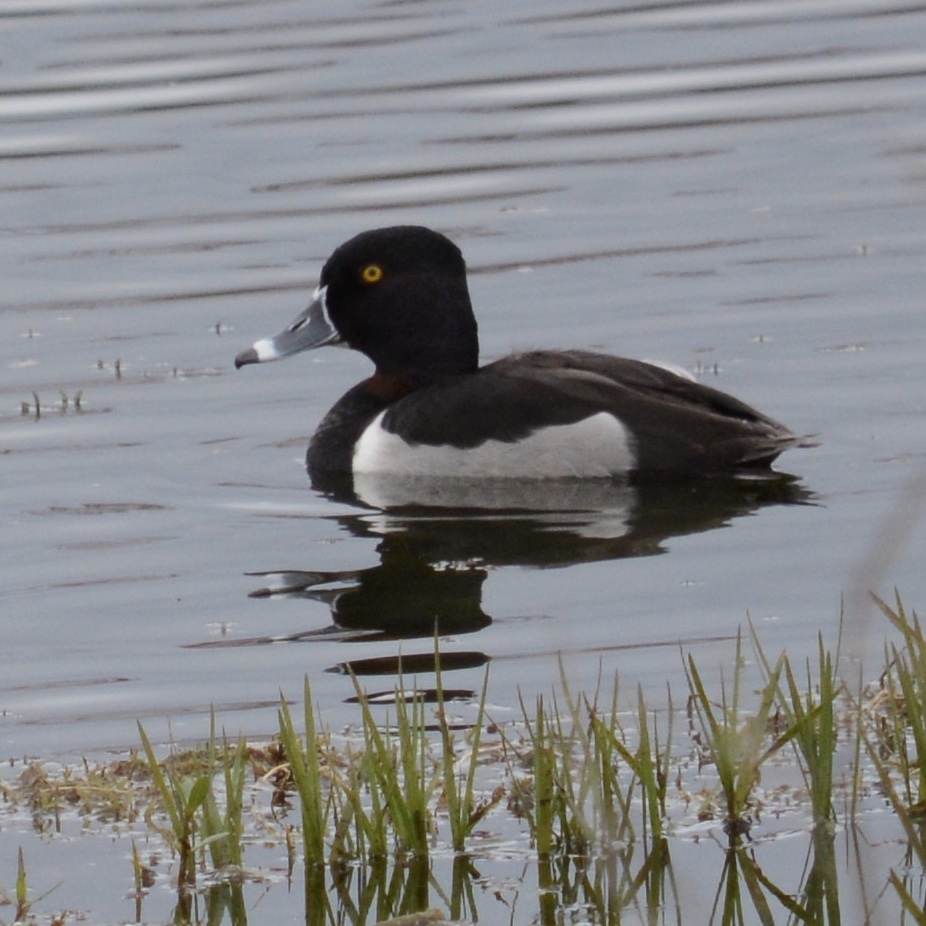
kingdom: Animalia
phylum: Chordata
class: Aves
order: Anseriformes
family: Anatidae
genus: Aythya
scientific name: Aythya collaris
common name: Ring-necked duck
